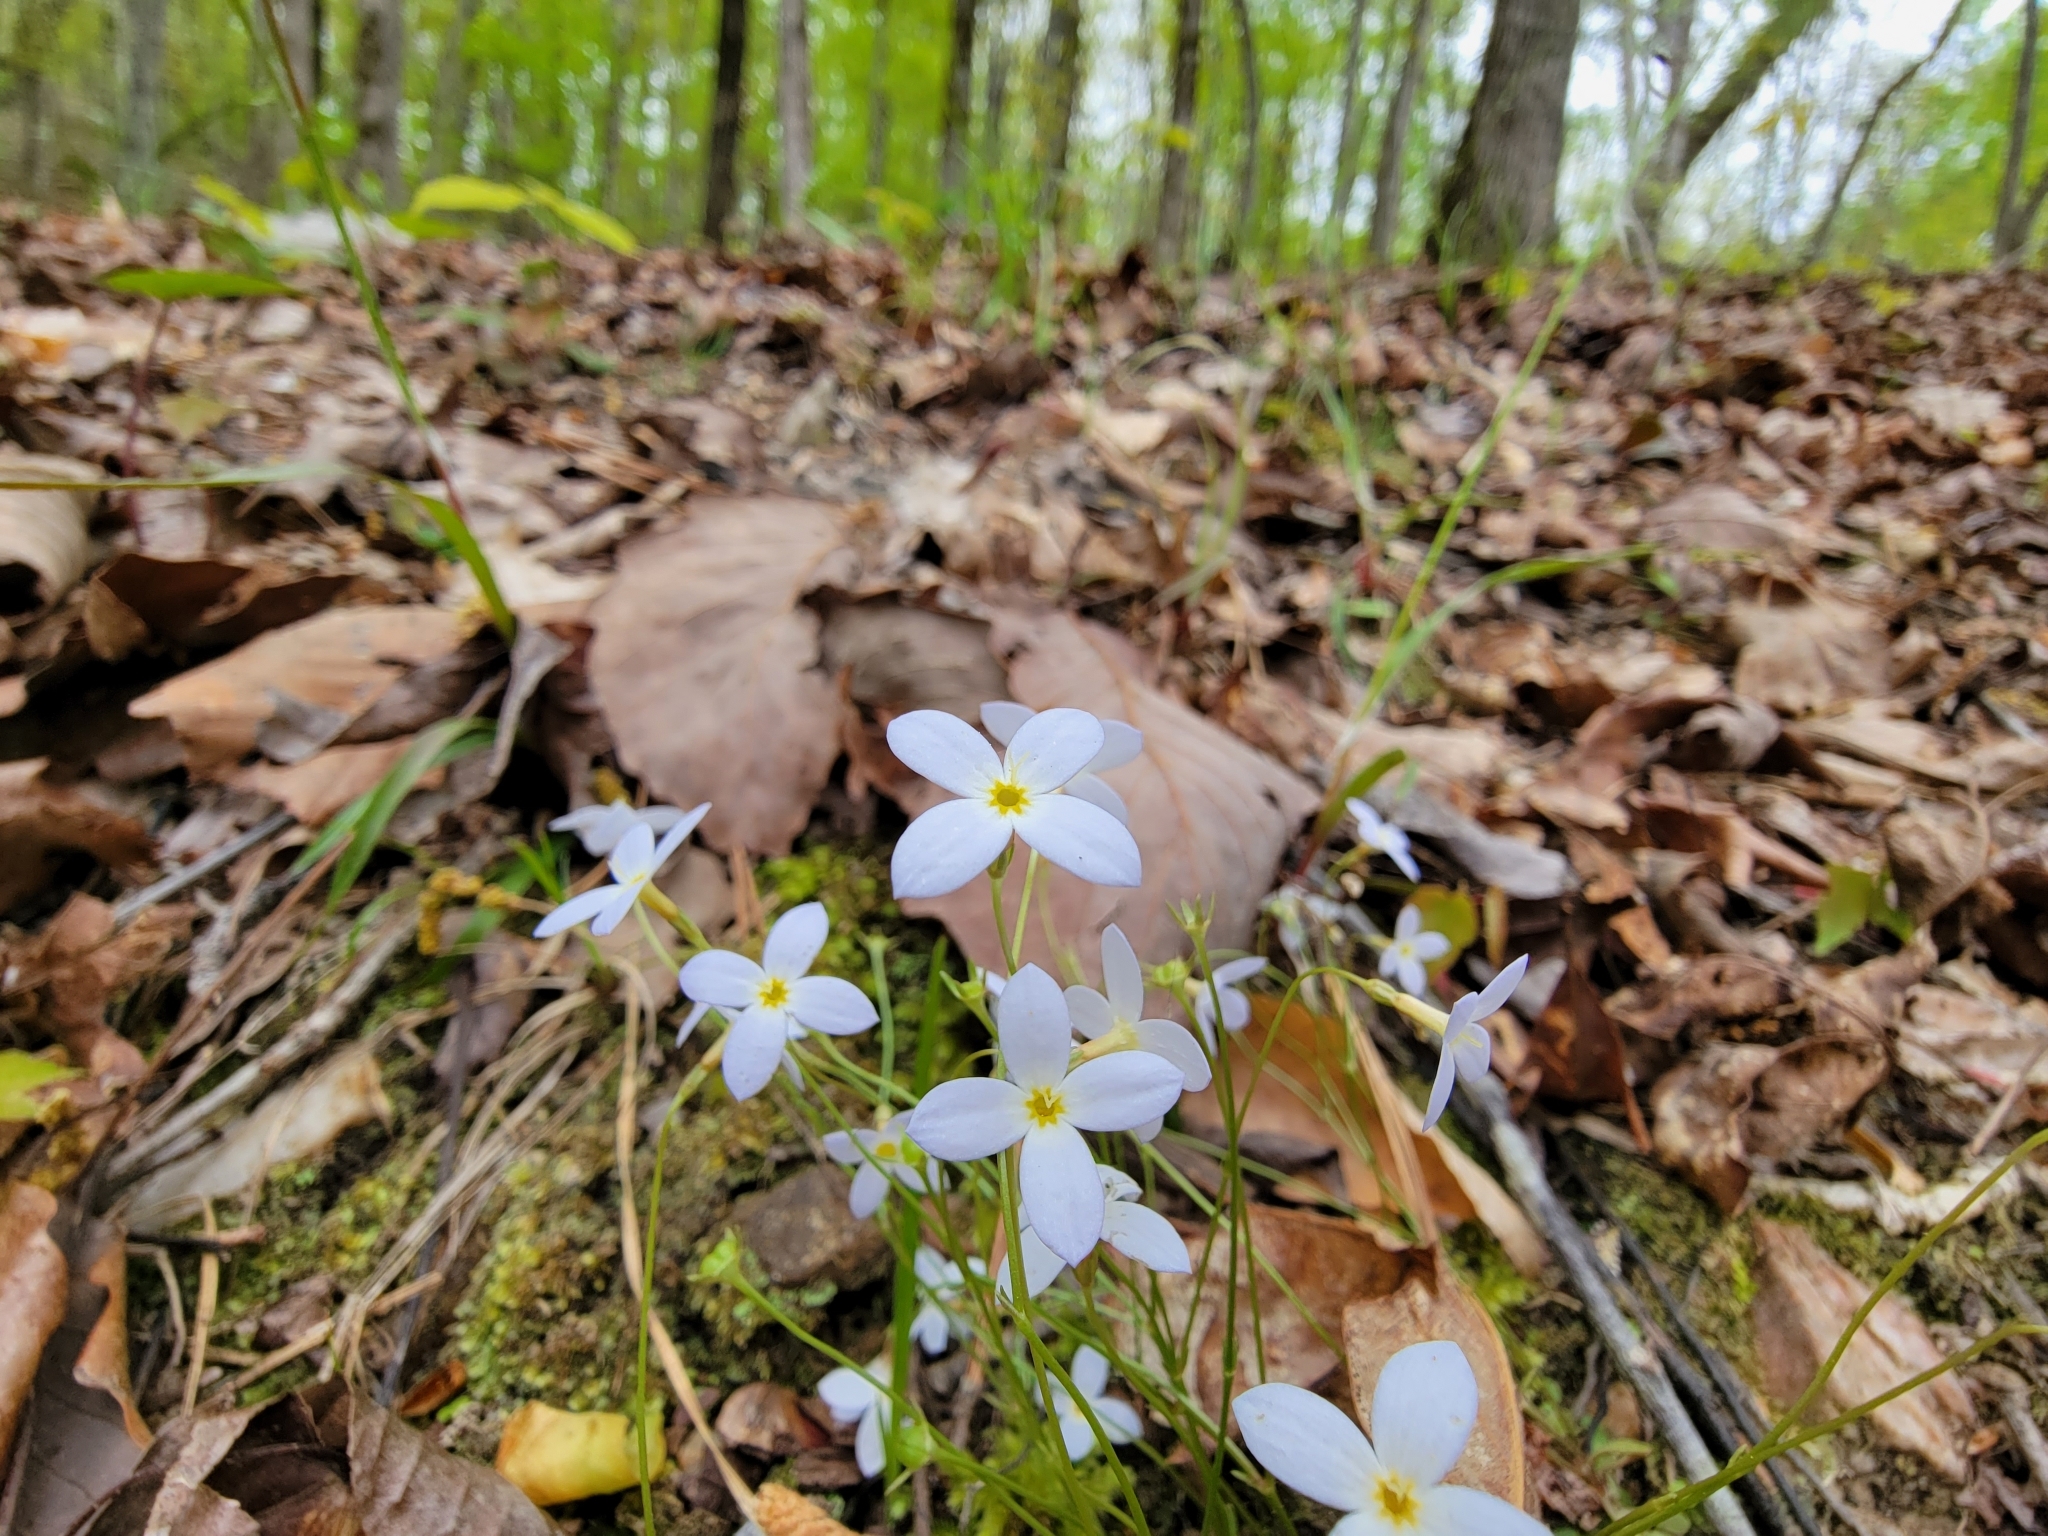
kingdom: Plantae
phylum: Tracheophyta
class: Magnoliopsida
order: Gentianales
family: Rubiaceae
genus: Houstonia
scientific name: Houstonia caerulea
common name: Bluets
